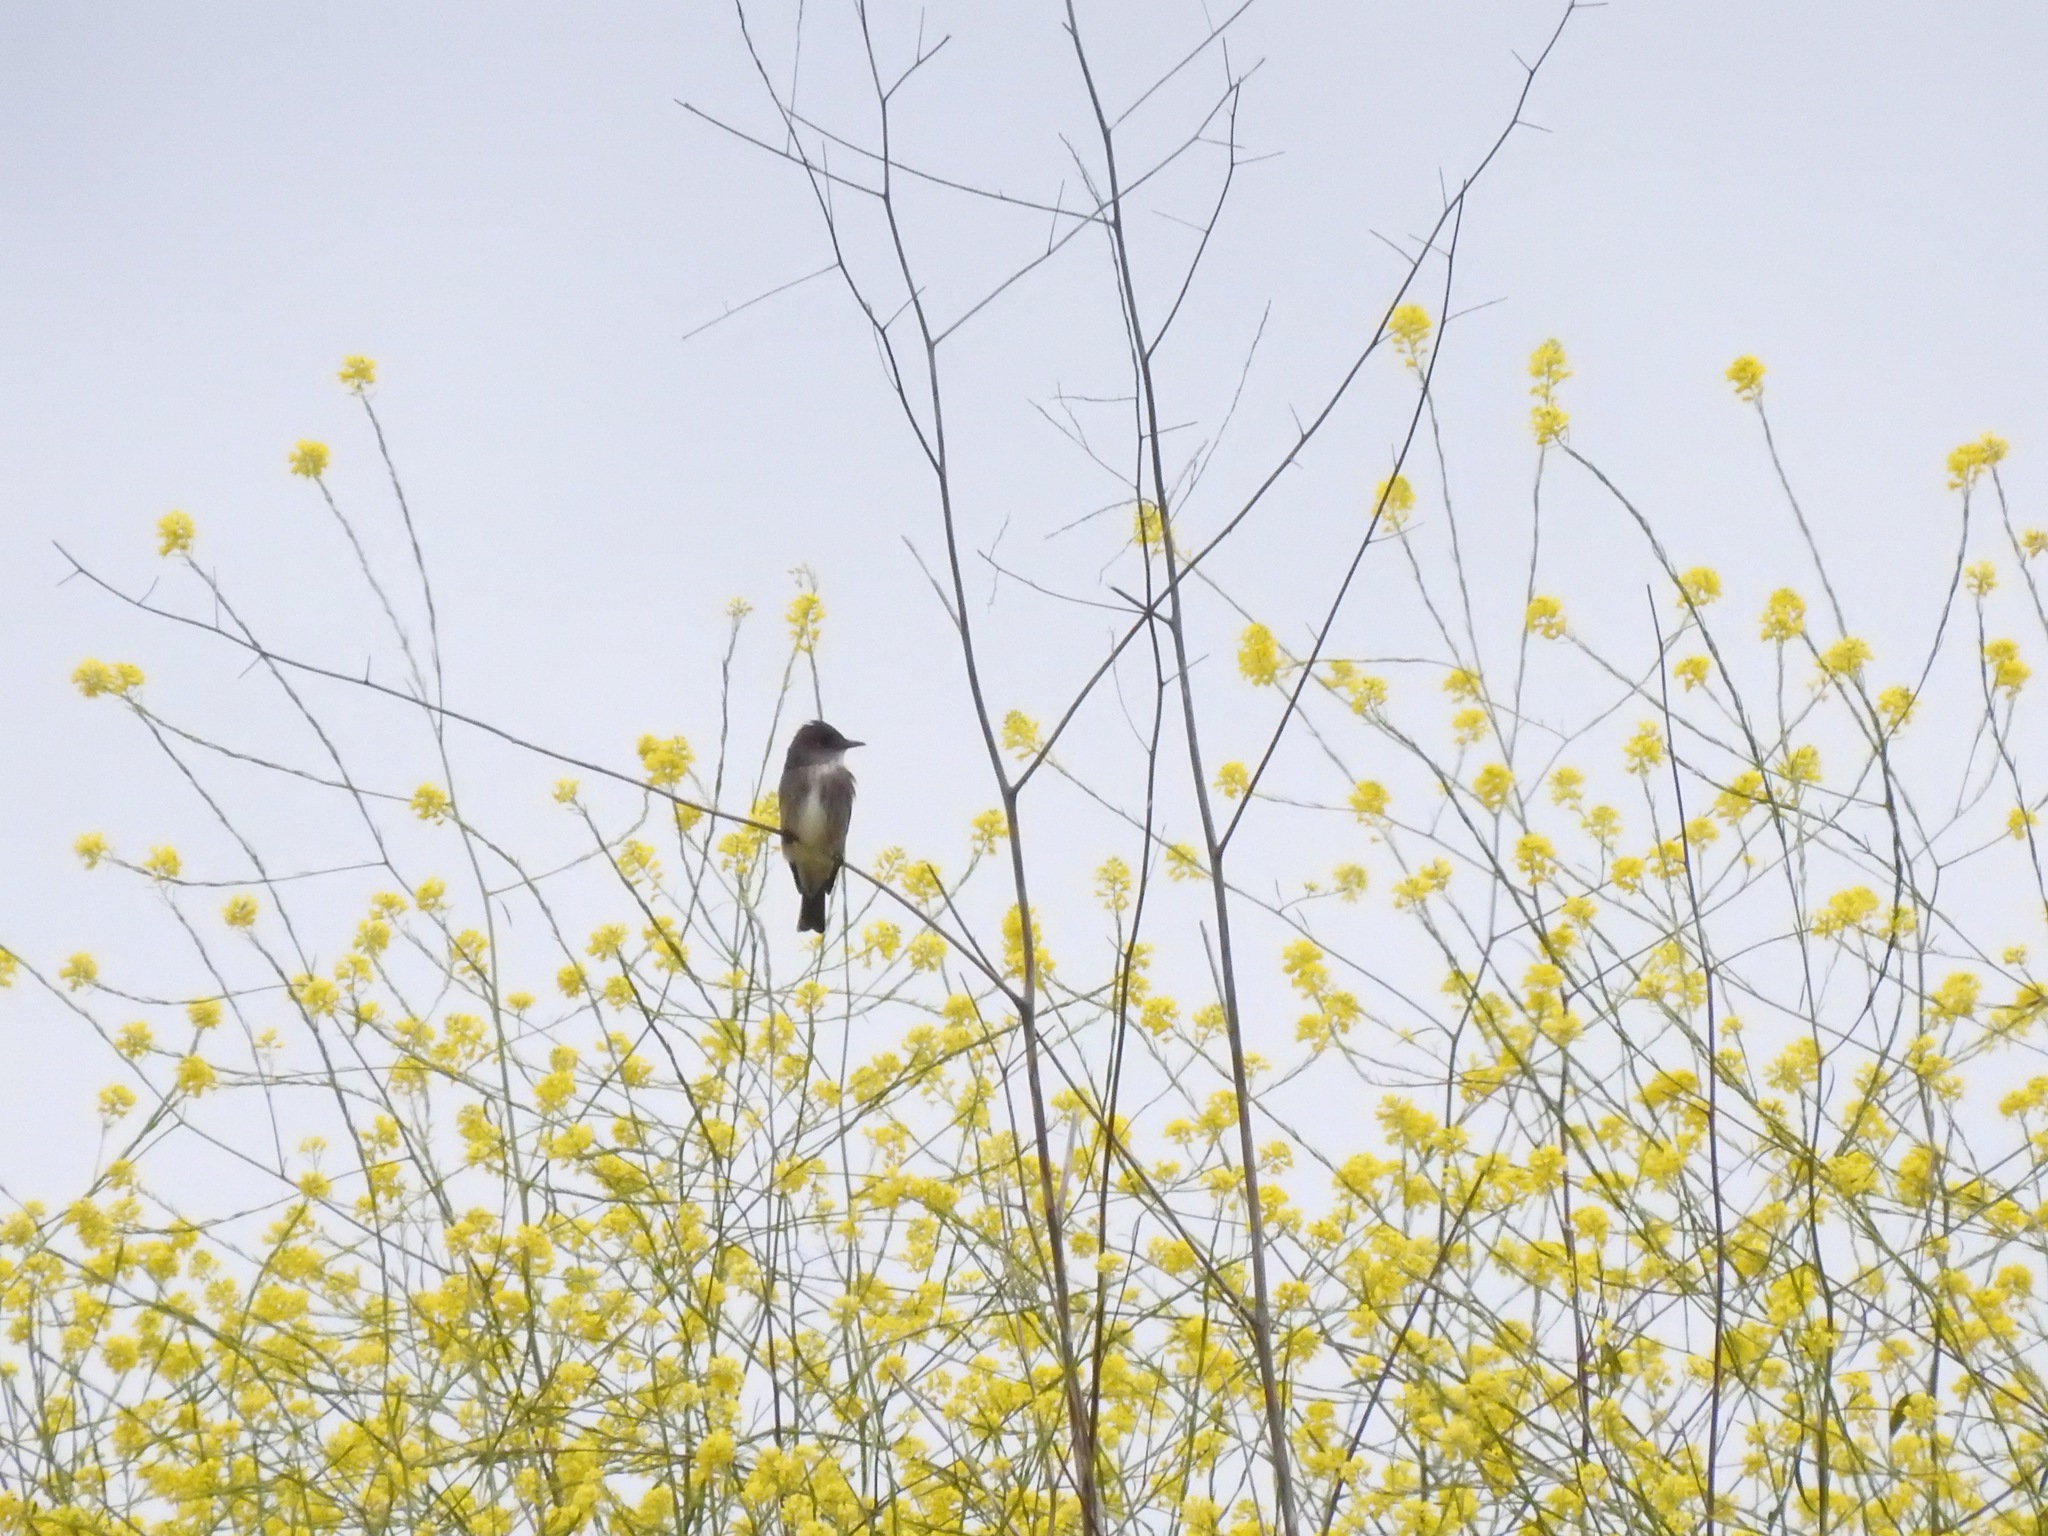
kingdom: Animalia
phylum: Chordata
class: Aves
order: Passeriformes
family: Tyrannidae
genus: Contopus
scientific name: Contopus cooperi
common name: Olive-sided flycatcher
